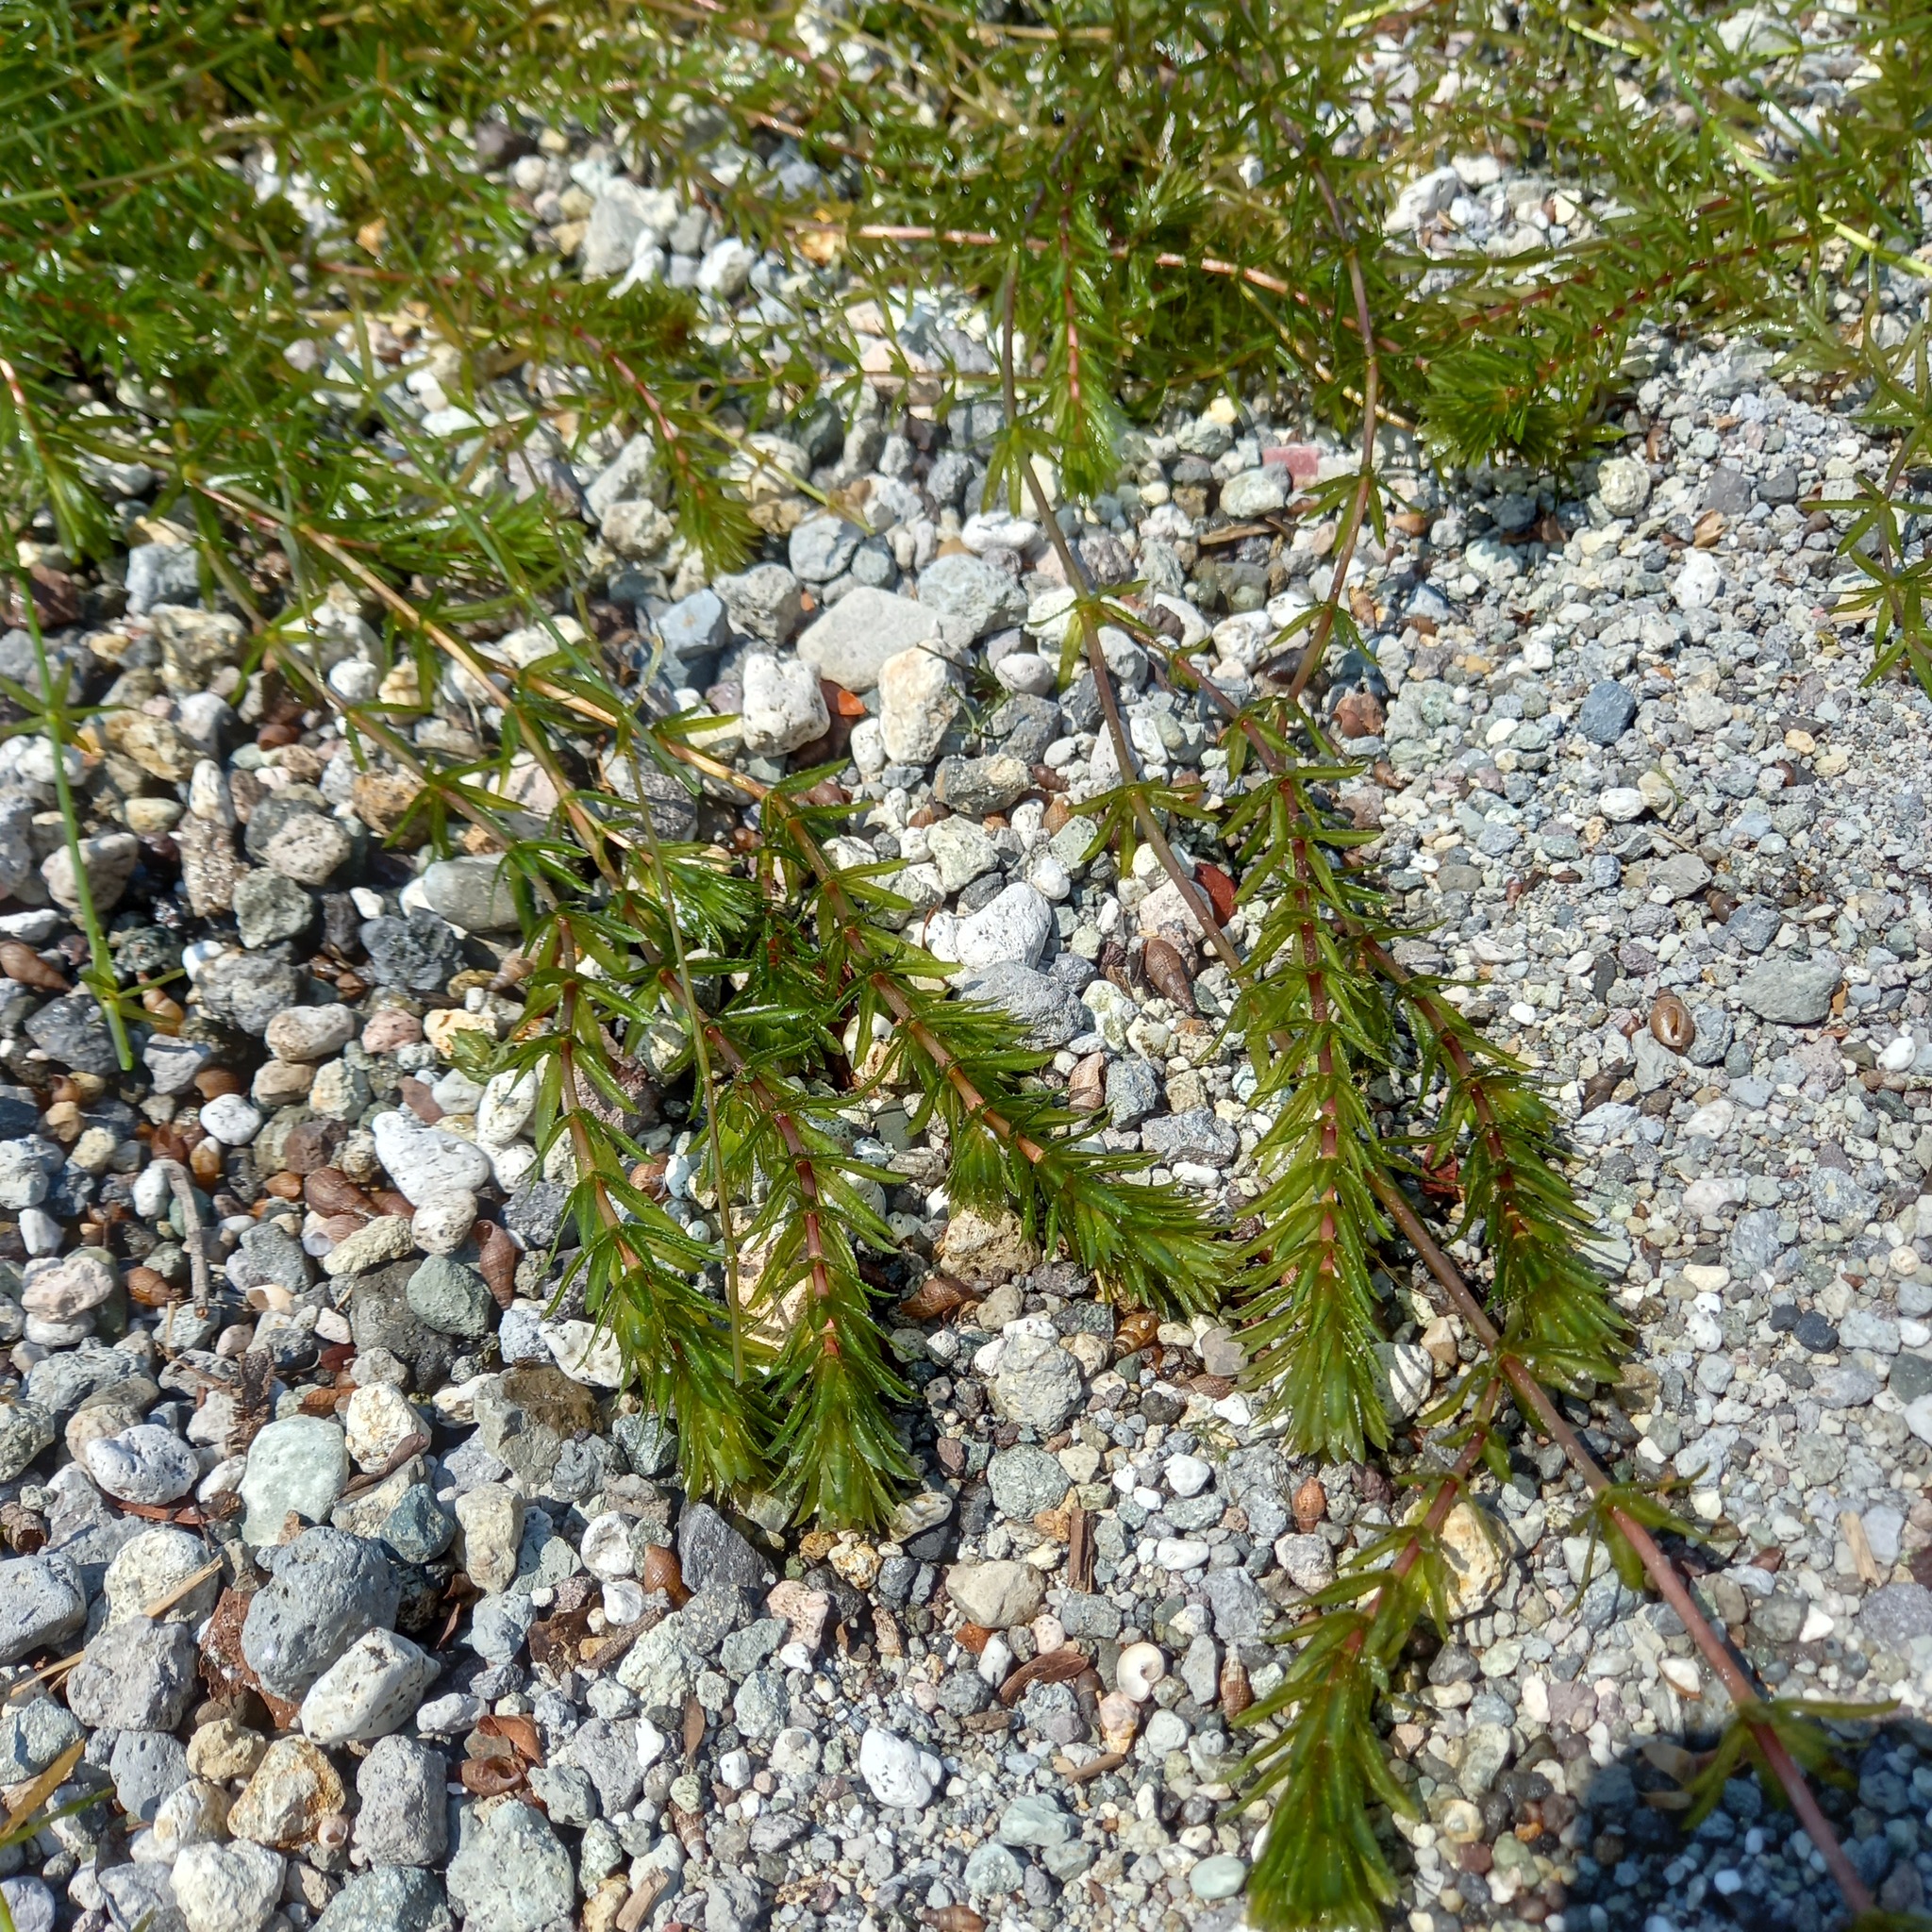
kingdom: Plantae
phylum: Tracheophyta
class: Liliopsida
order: Alismatales
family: Hydrocharitaceae
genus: Hydrilla
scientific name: Hydrilla verticillata
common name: Florida-elodea
